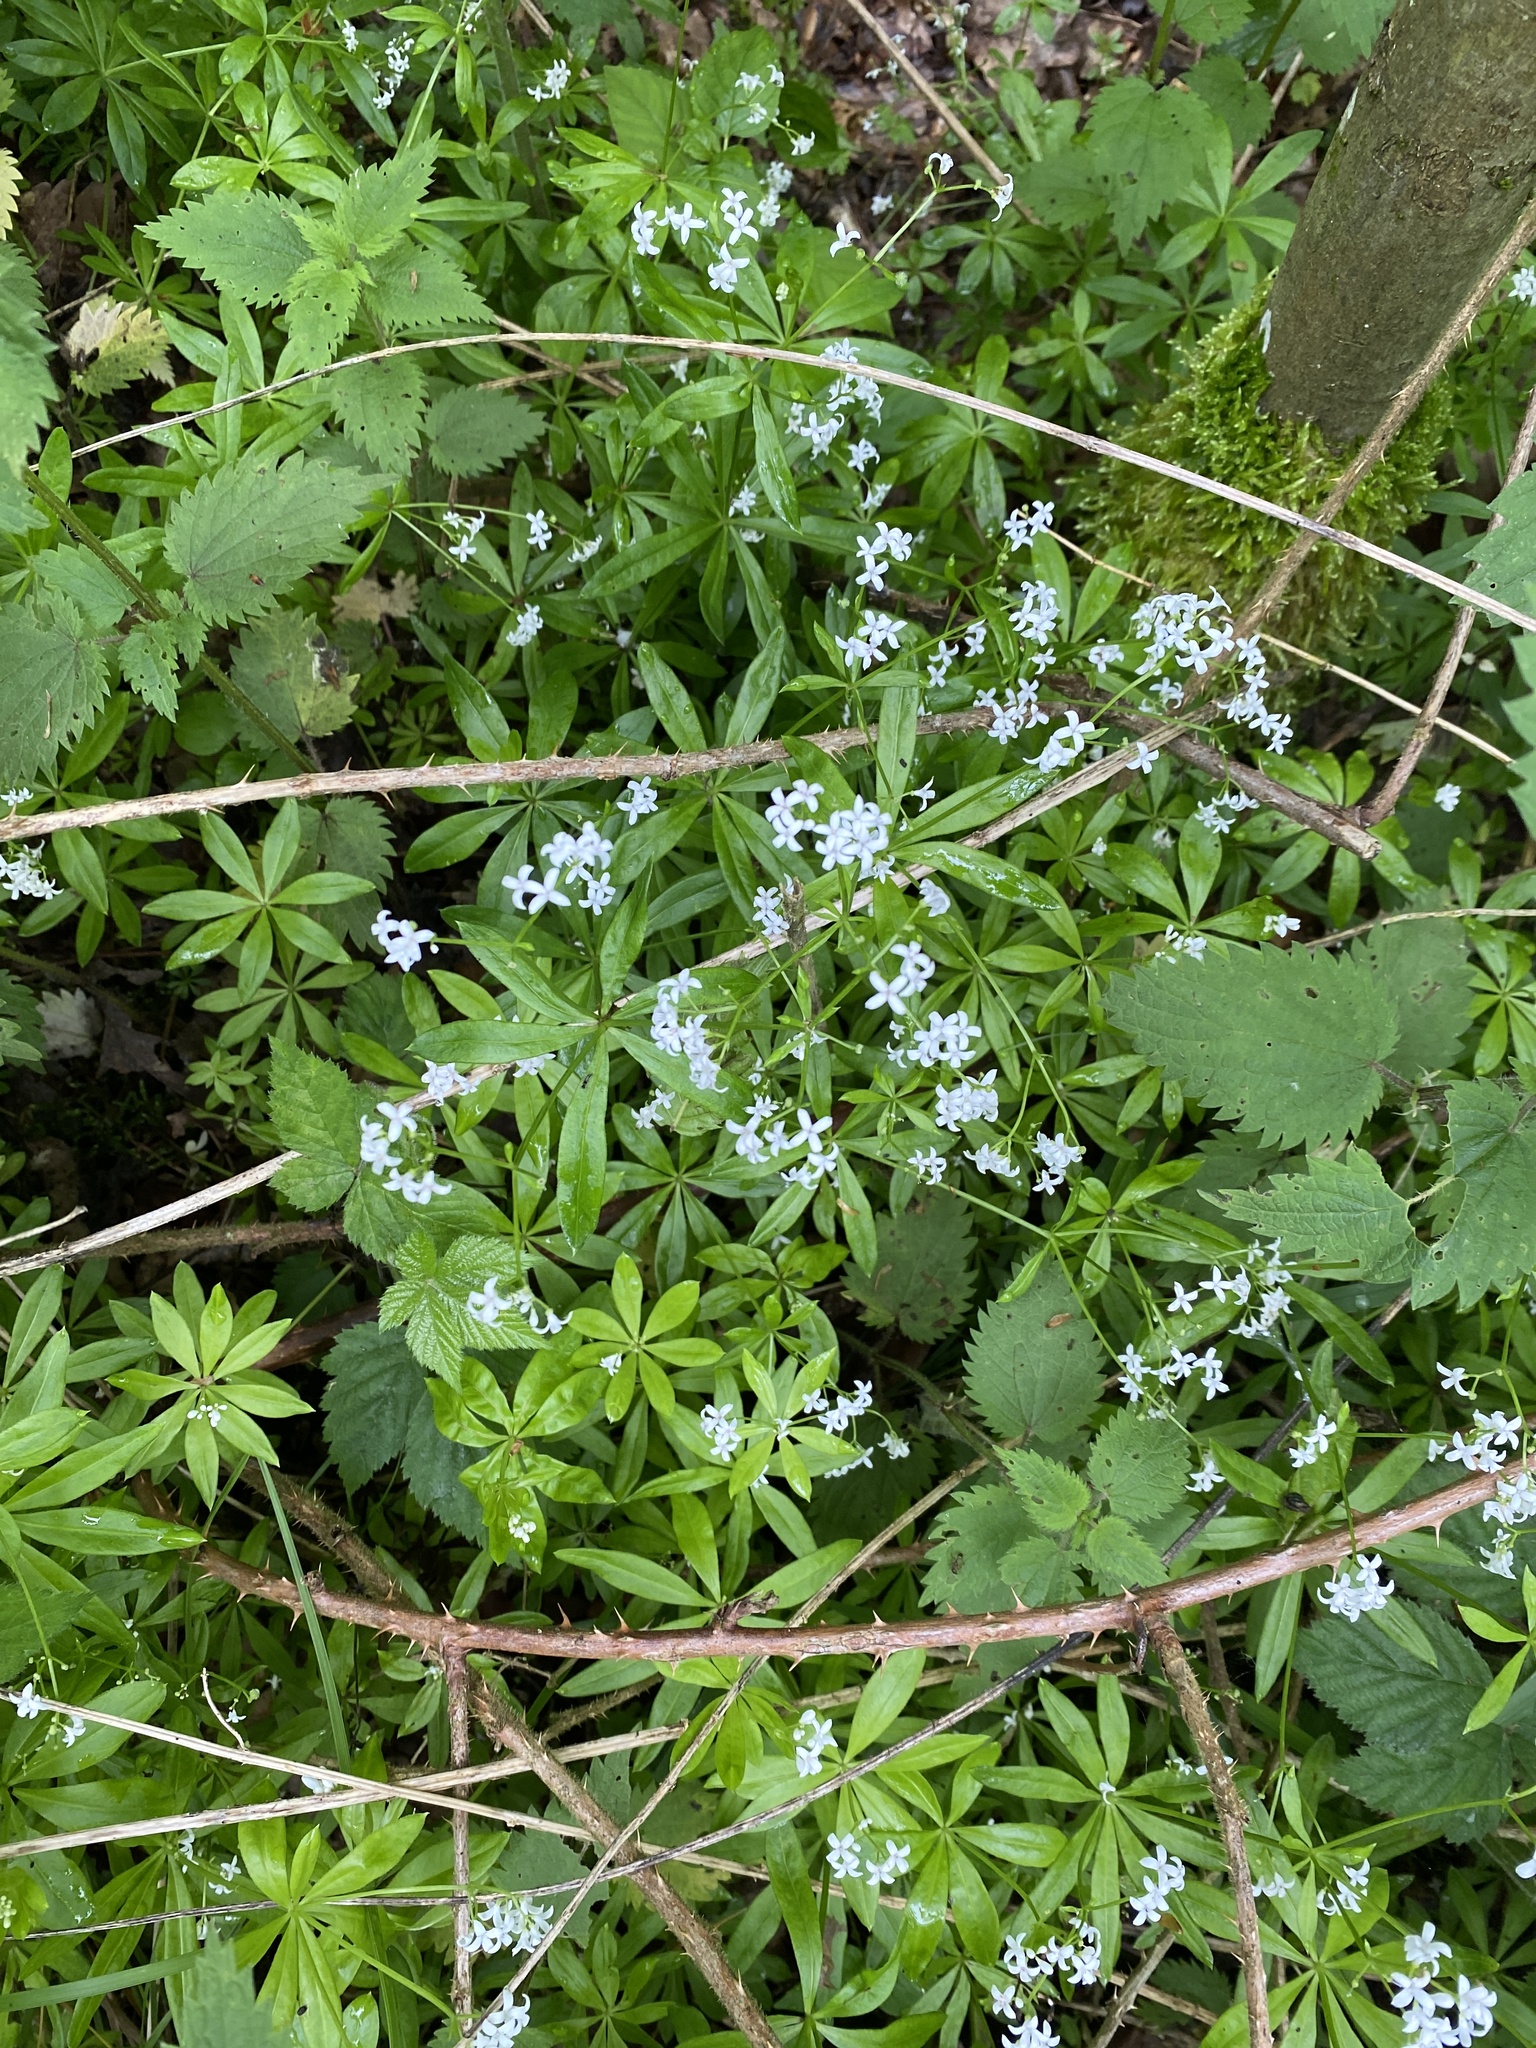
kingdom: Plantae
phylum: Tracheophyta
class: Magnoliopsida
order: Gentianales
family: Rubiaceae
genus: Galium
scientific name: Galium odoratum
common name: Sweet woodruff
